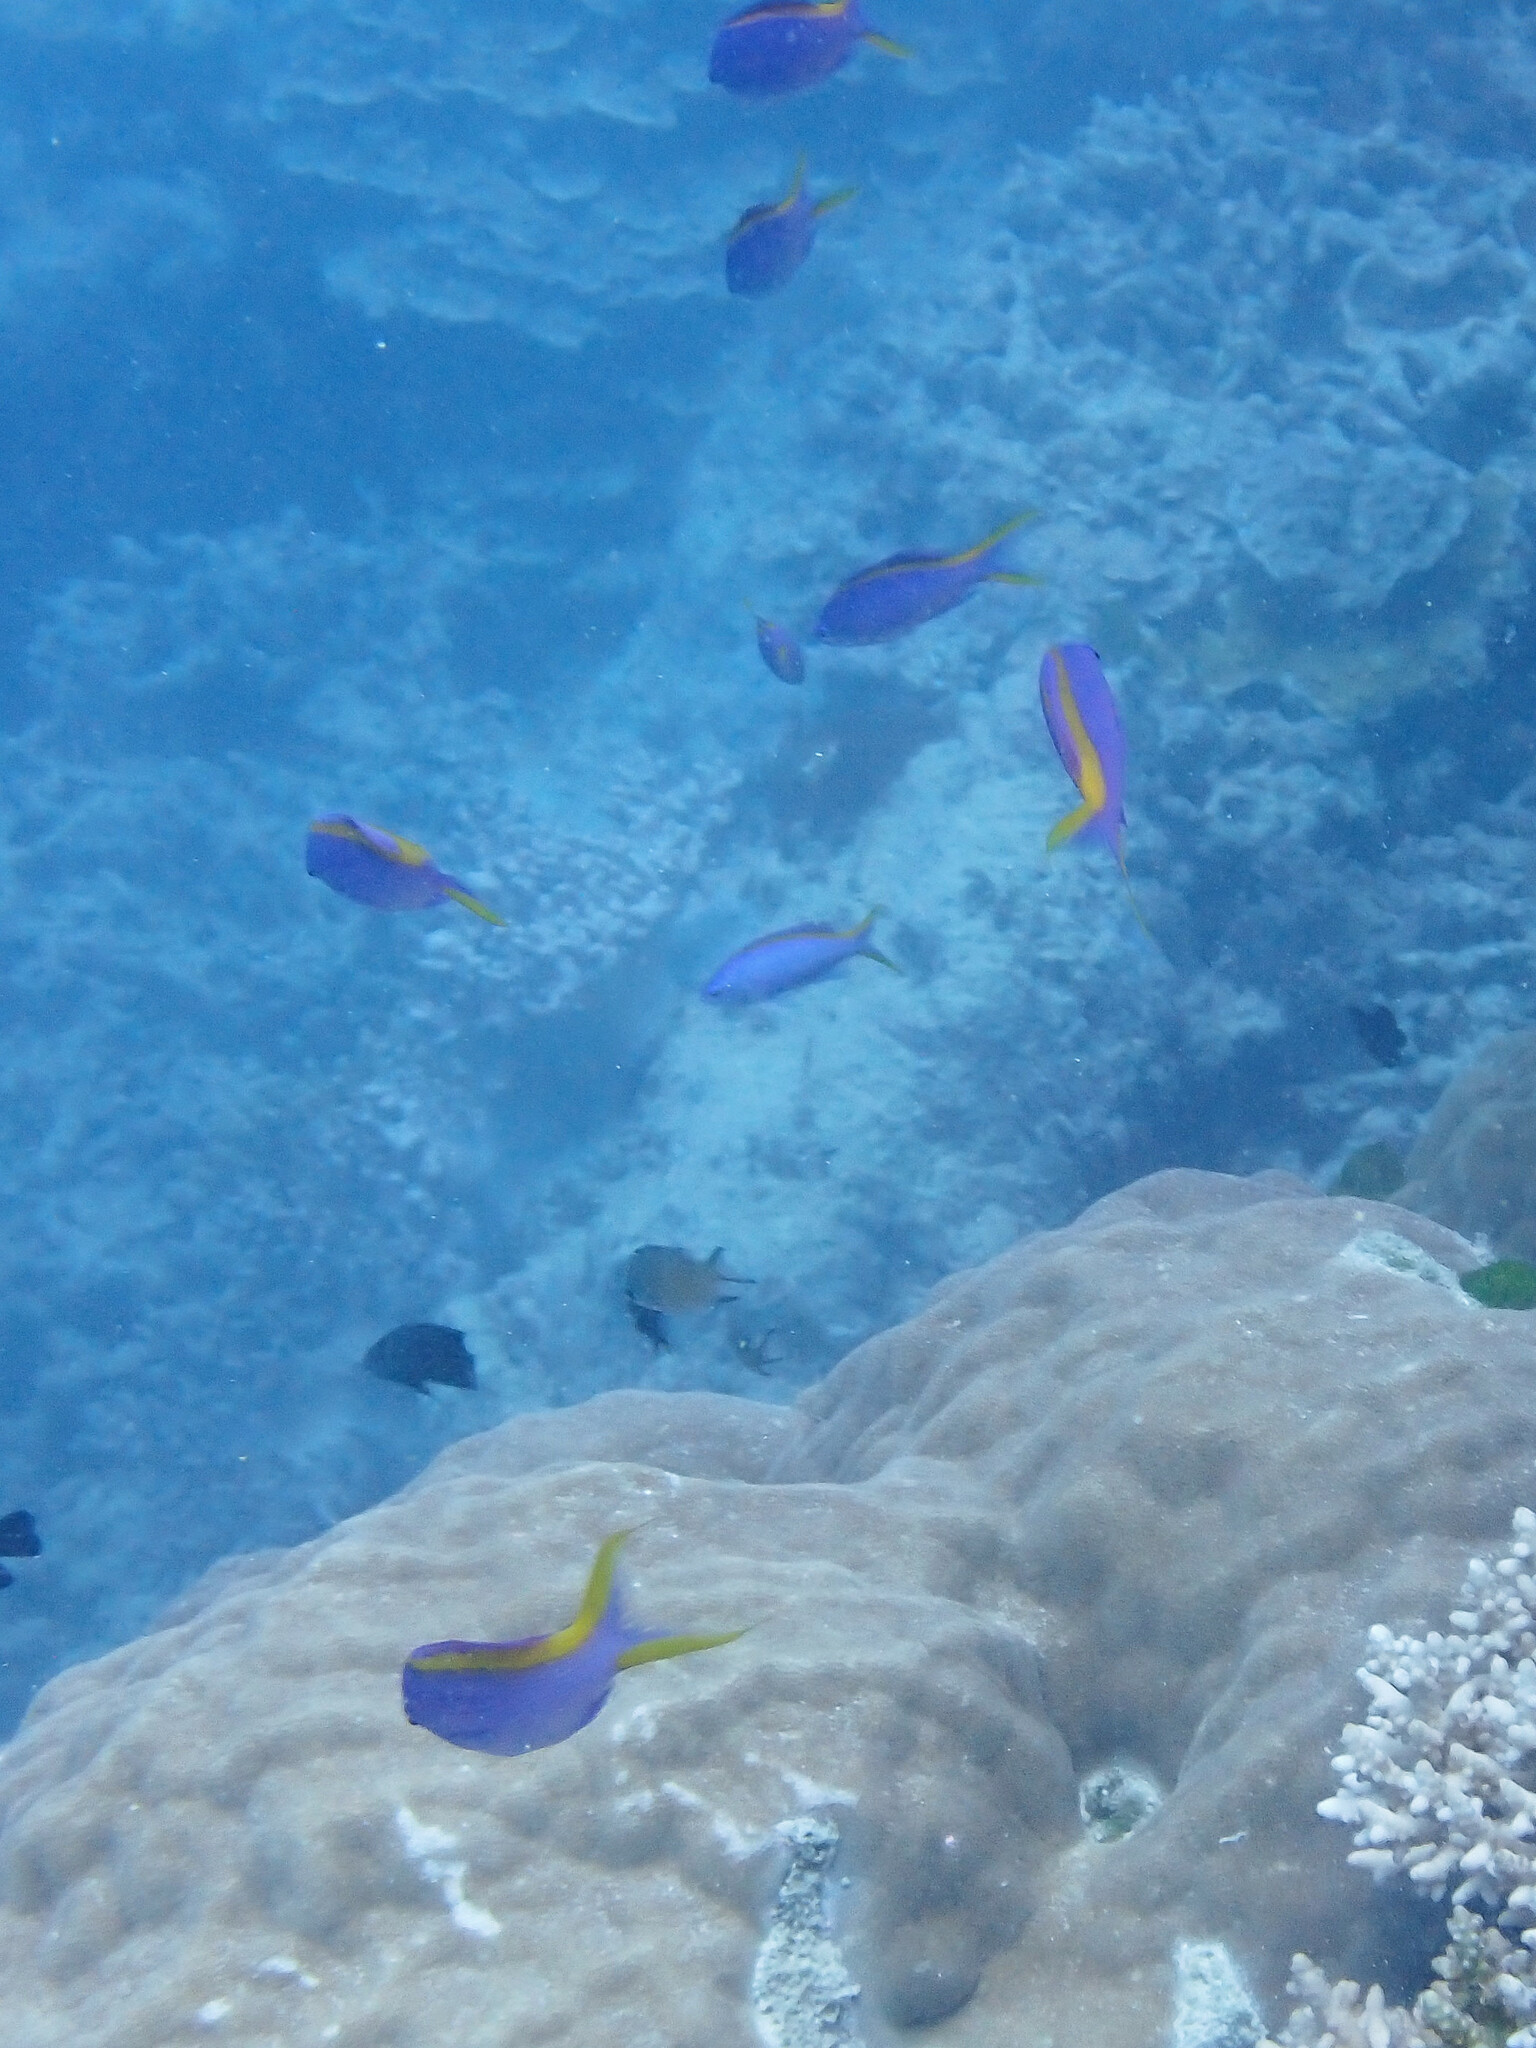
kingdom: Animalia
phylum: Chordata
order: Perciformes
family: Serranidae
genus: Pseudanthias
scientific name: Pseudanthias tuka
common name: Purple queen
